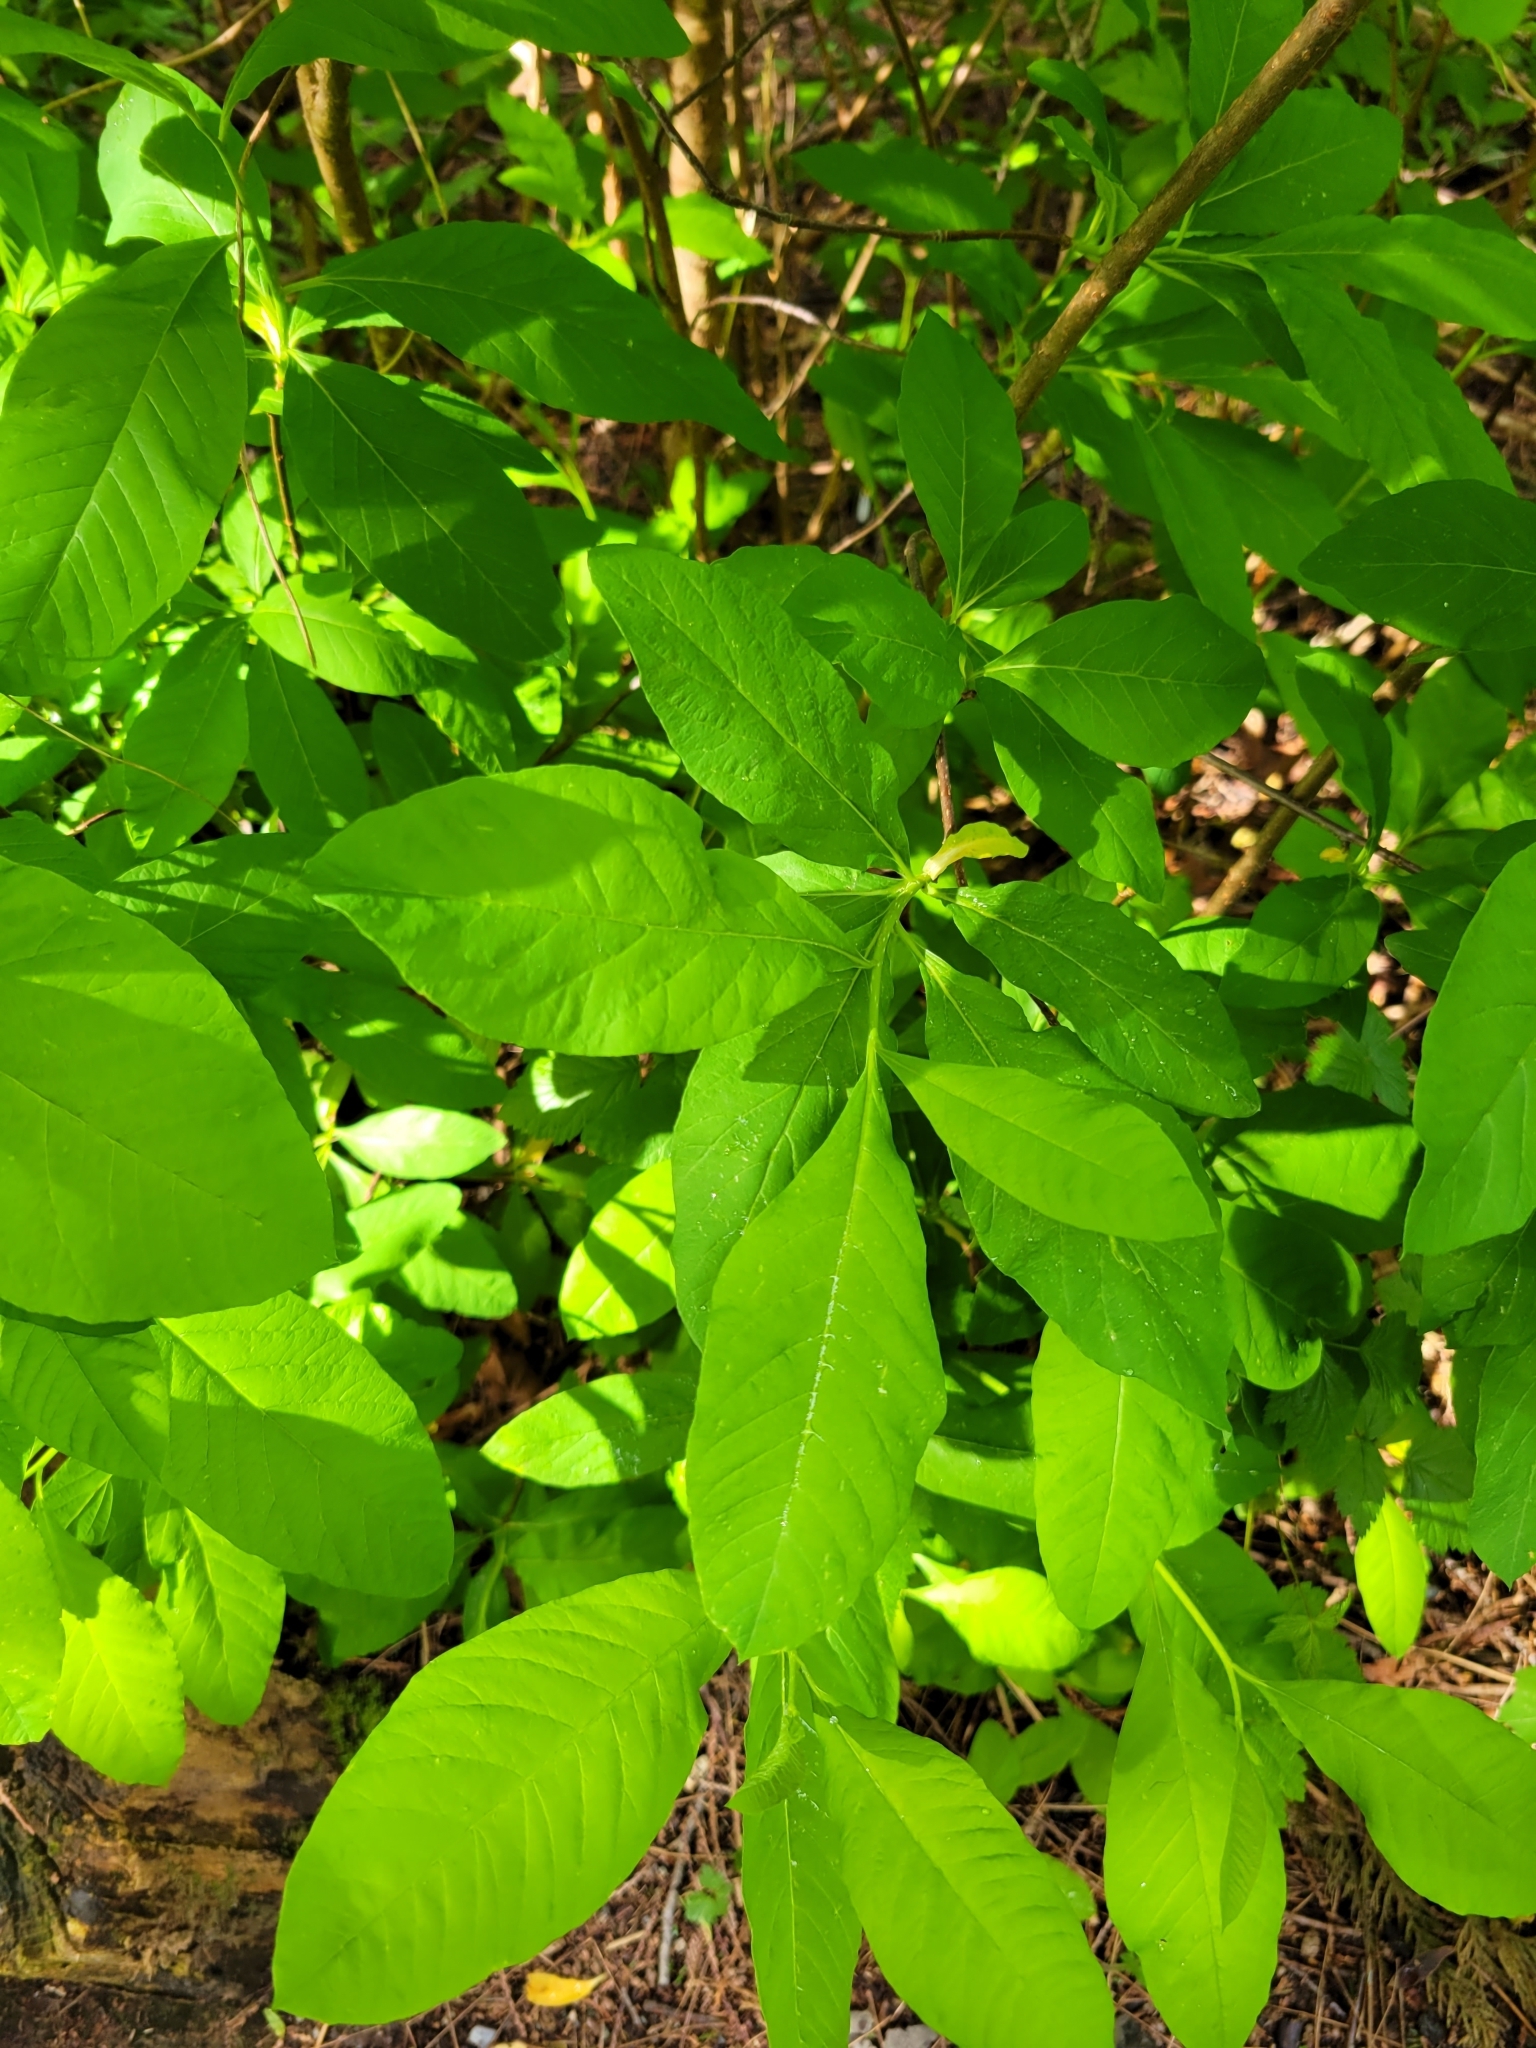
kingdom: Plantae
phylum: Tracheophyta
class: Magnoliopsida
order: Rosales
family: Rosaceae
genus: Oemleria
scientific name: Oemleria cerasiformis
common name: Osoberry
